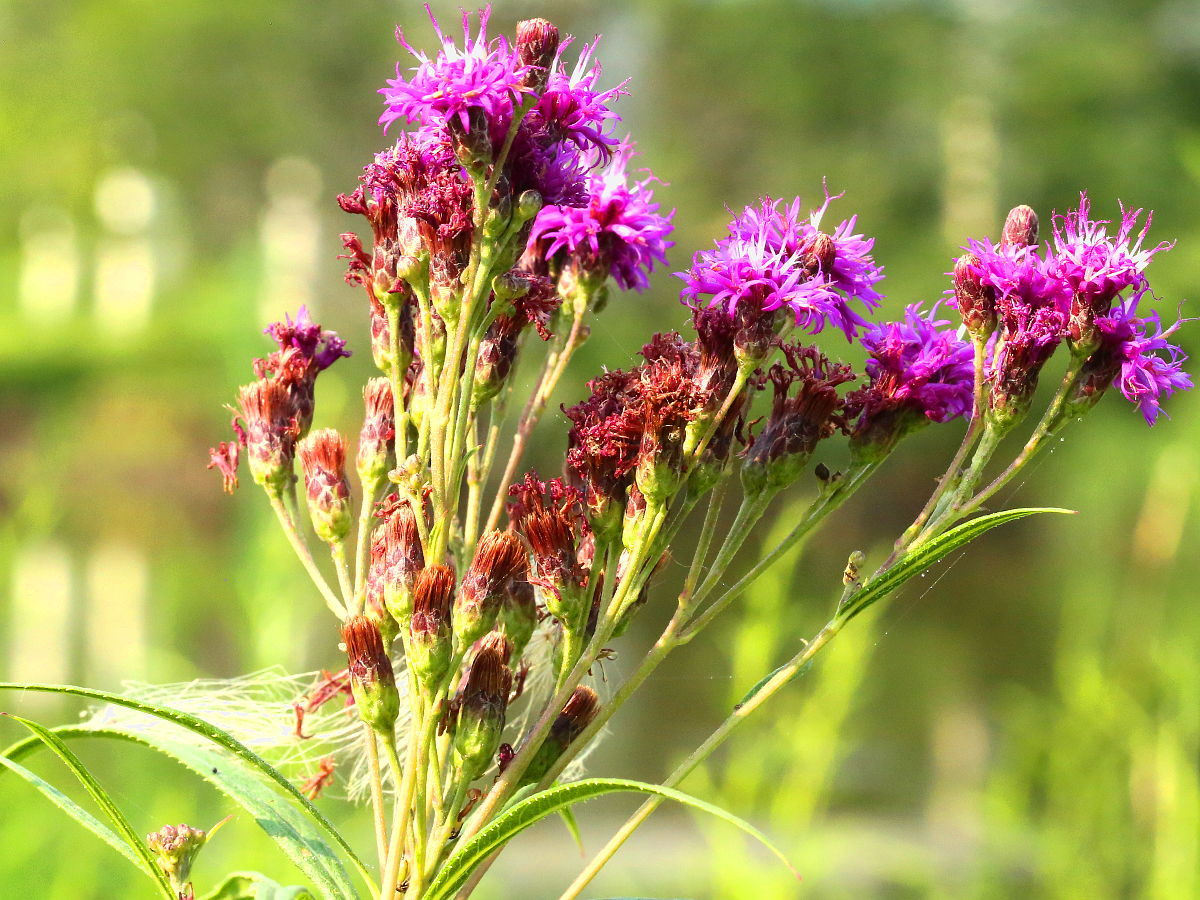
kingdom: Plantae
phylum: Tracheophyta
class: Magnoliopsida
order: Asterales
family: Asteraceae
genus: Vernonia
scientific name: Vernonia fasciculata
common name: Fascicled ironweed
